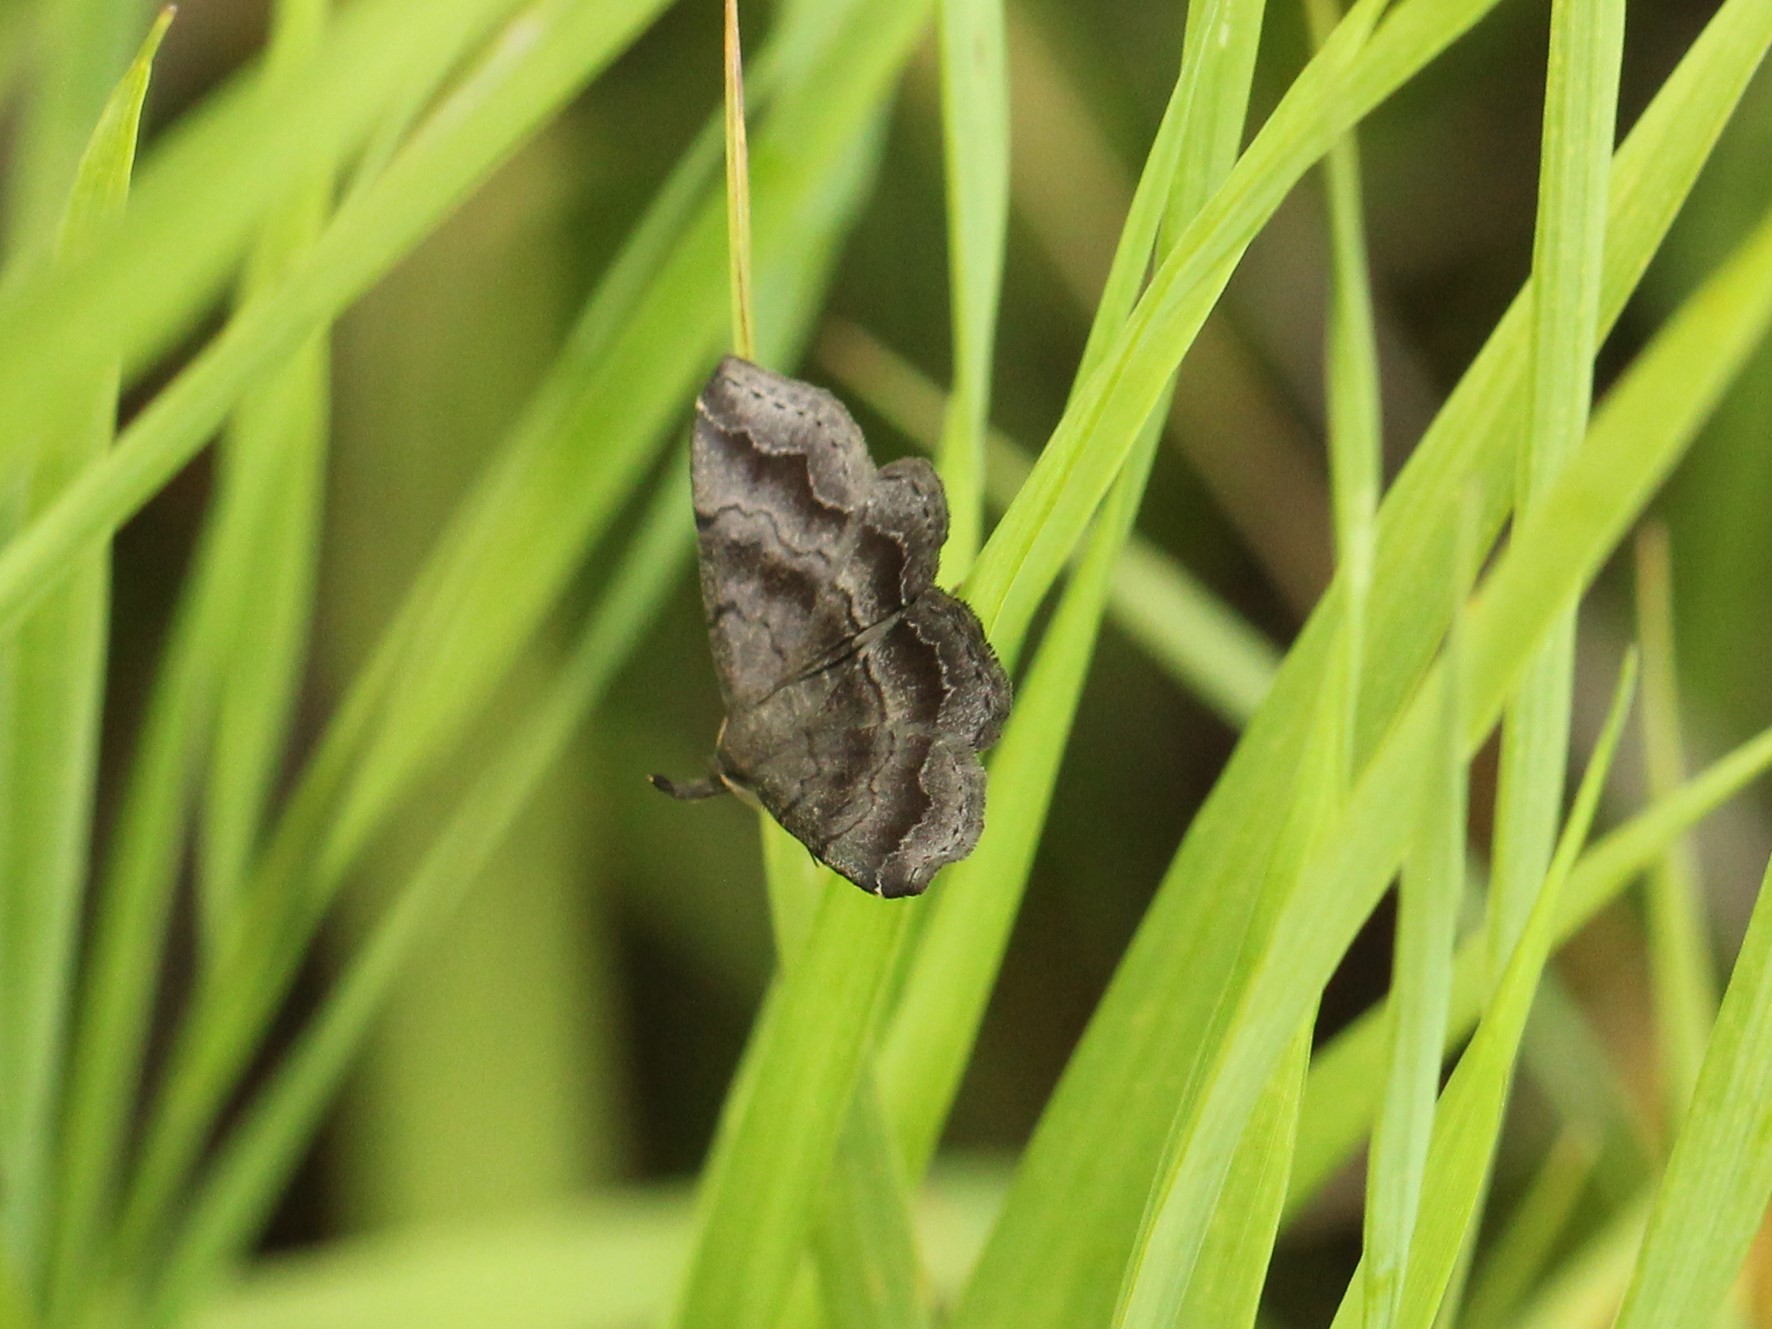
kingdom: Animalia
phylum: Arthropoda
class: Insecta
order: Lepidoptera
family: Erebidae
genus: Phalaenostola
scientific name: Phalaenostola larentioides
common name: Black-banded owlet
